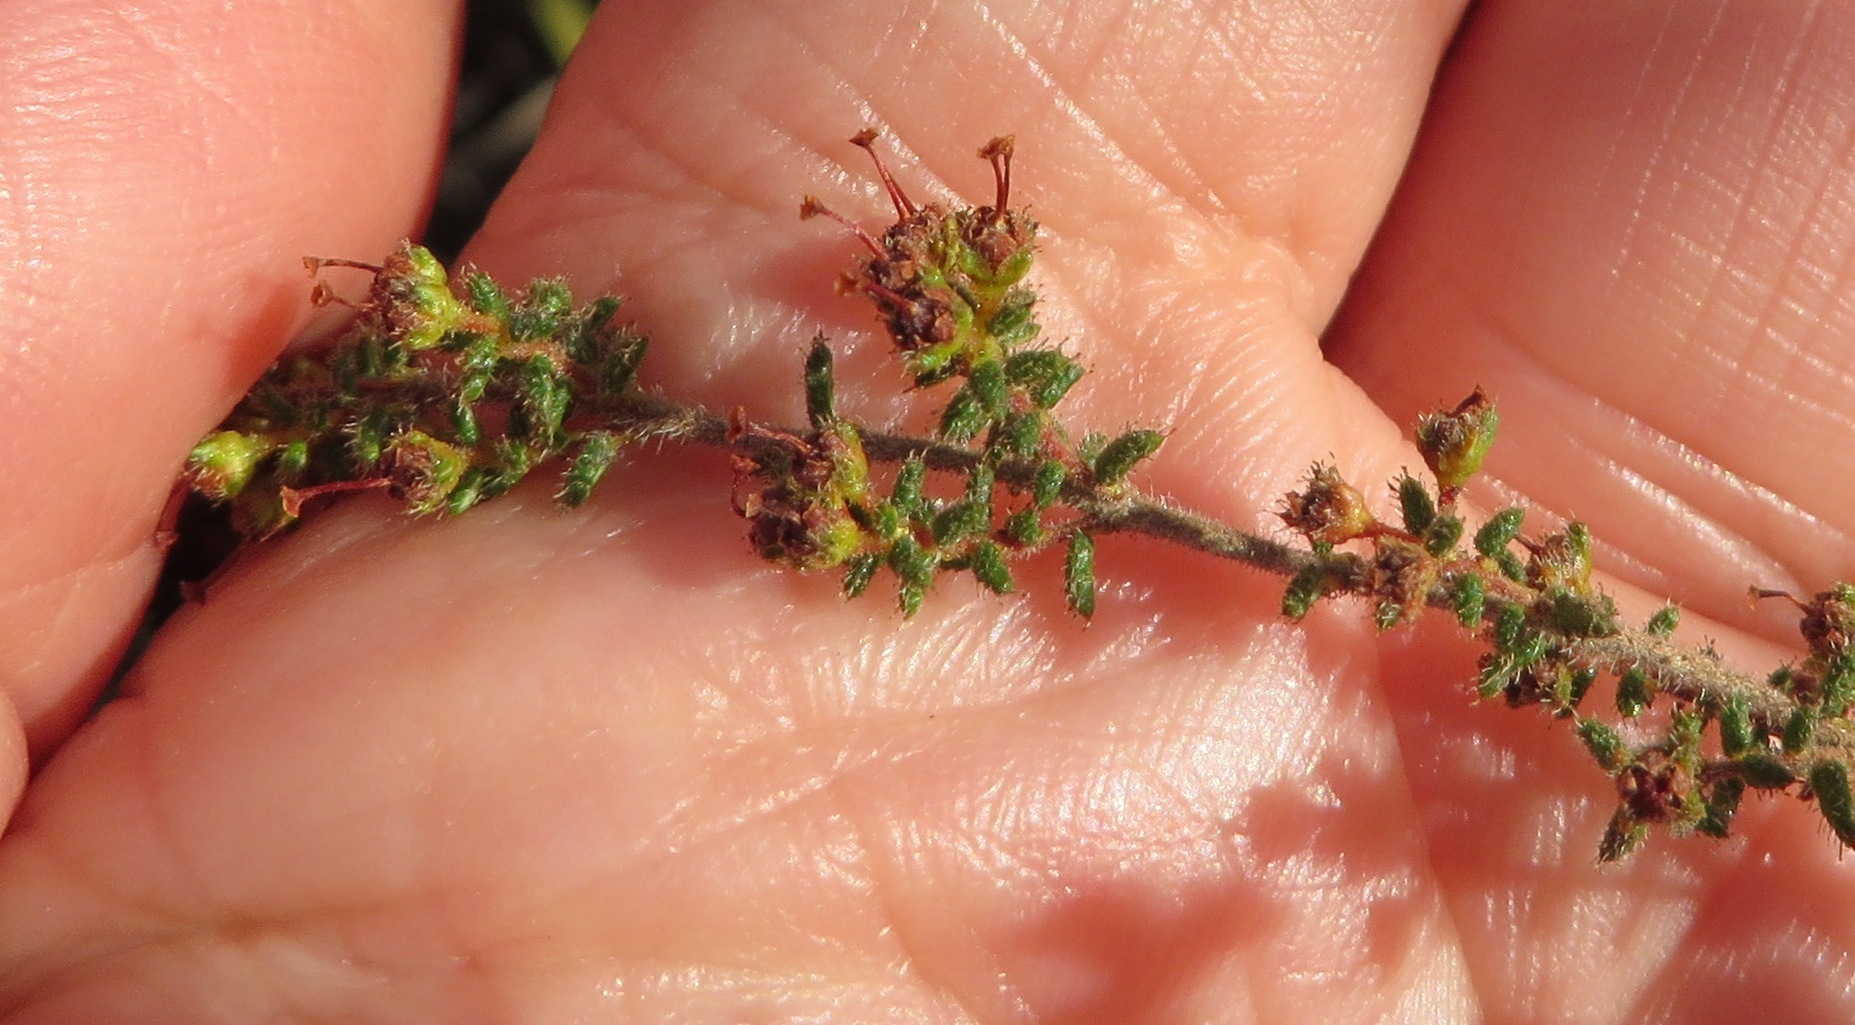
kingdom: Plantae
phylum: Tracheophyta
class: Magnoliopsida
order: Ericales
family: Ericaceae
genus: Erica
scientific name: Erica exleeana
